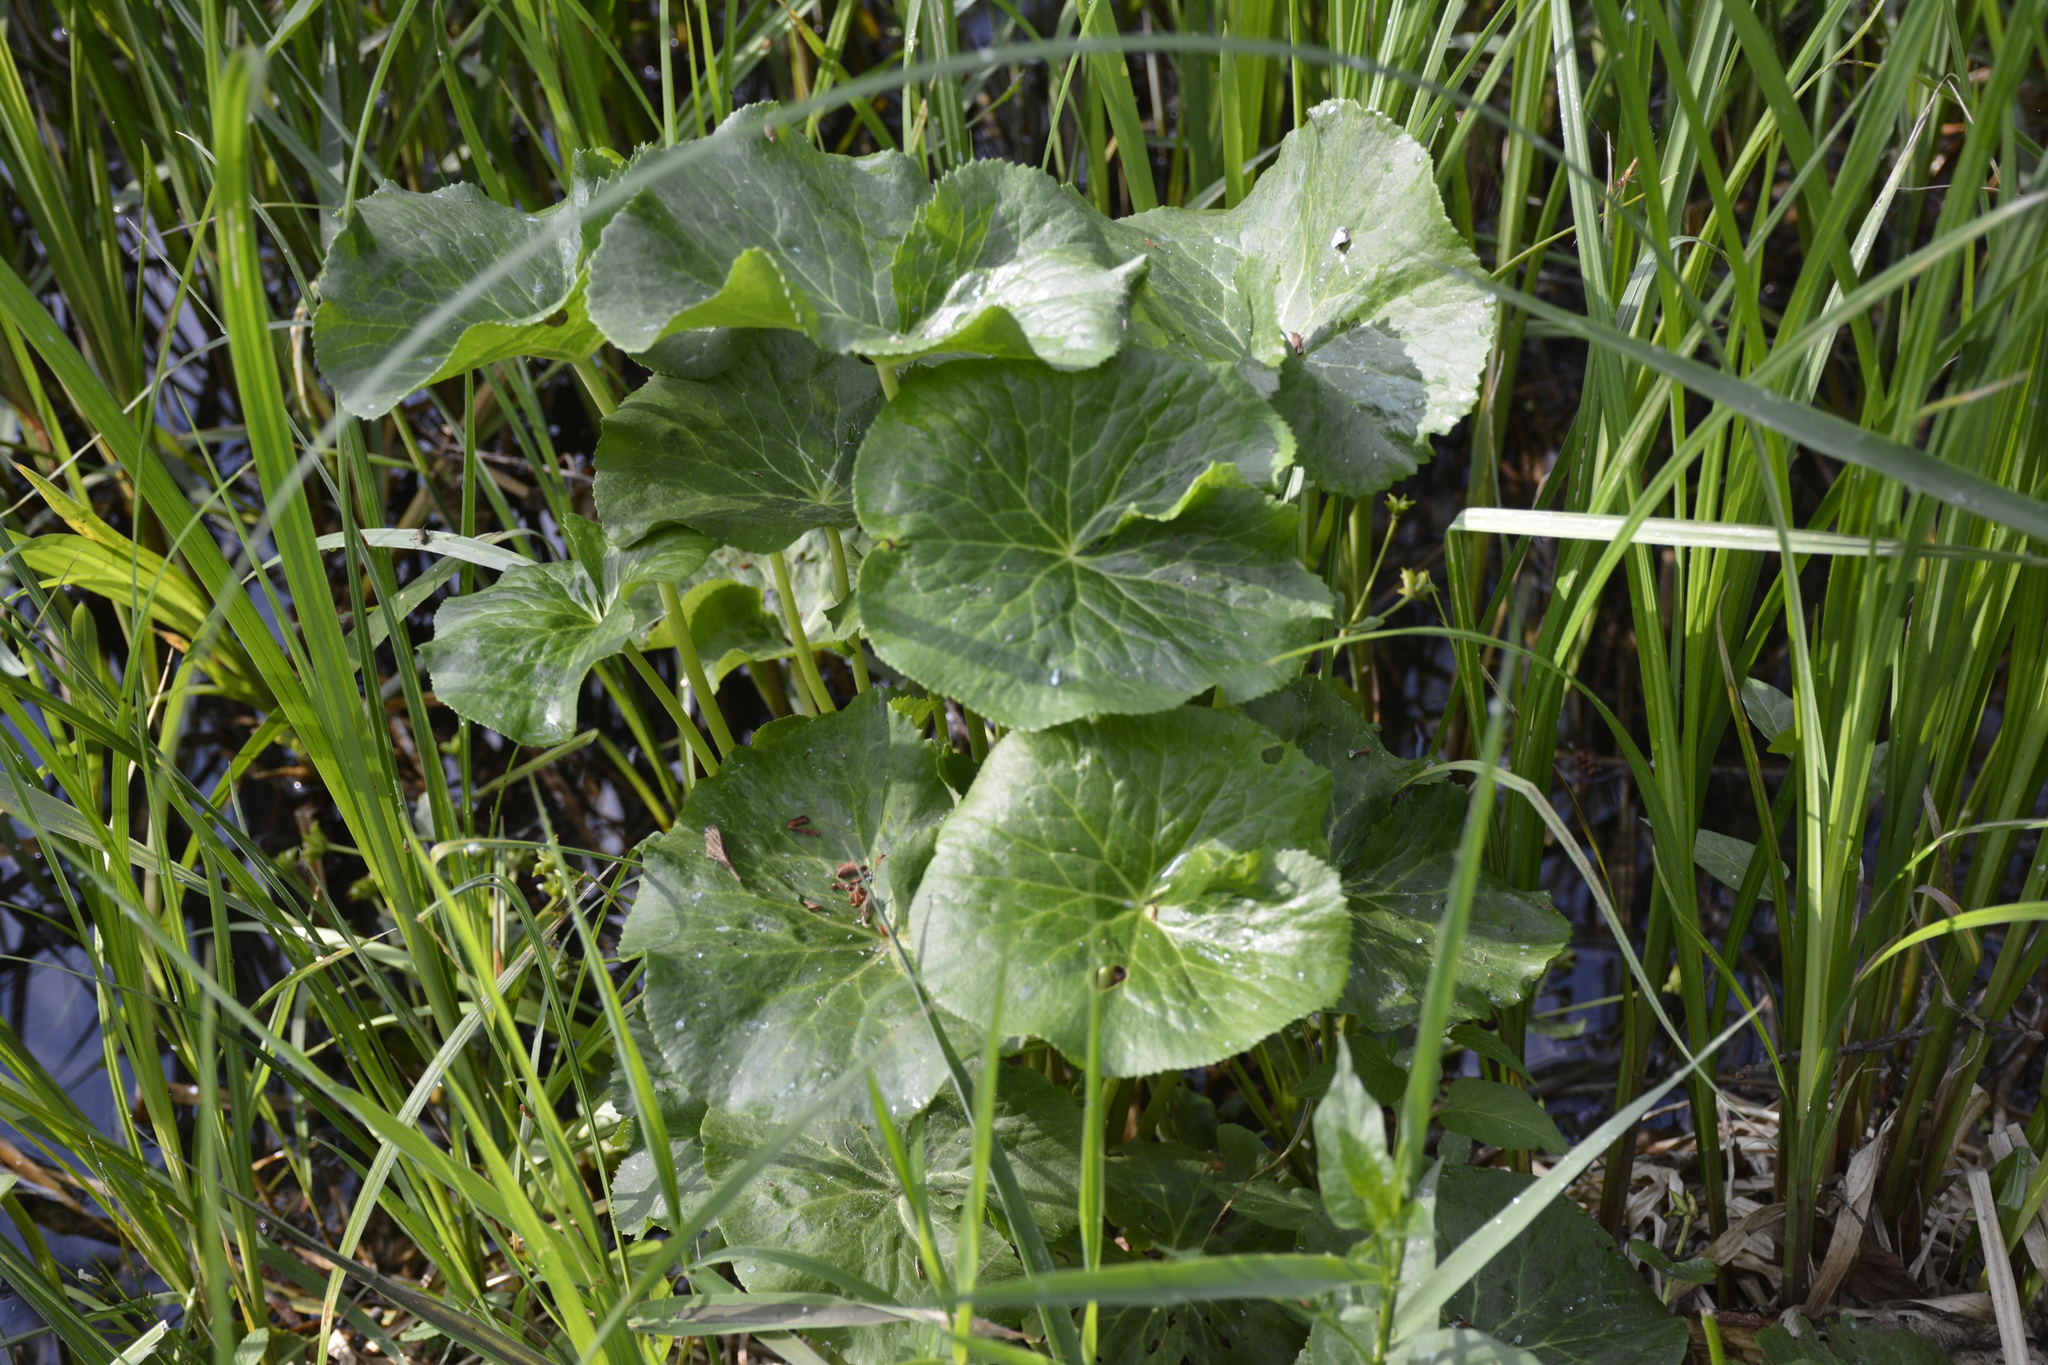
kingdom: Plantae
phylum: Tracheophyta
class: Magnoliopsida
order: Ranunculales
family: Ranunculaceae
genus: Caltha
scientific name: Caltha palustris
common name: Marsh marigold
